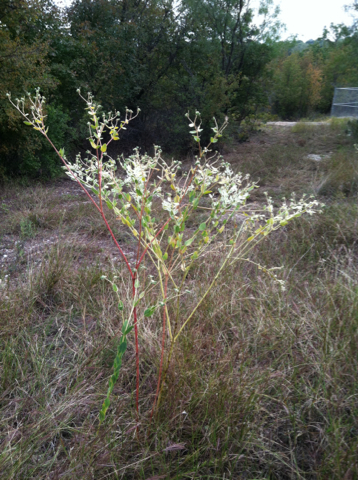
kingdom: Plantae
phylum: Tracheophyta
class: Magnoliopsida
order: Malpighiales
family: Euphorbiaceae
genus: Euphorbia
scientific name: Euphorbia marginata
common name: Ghostweed
